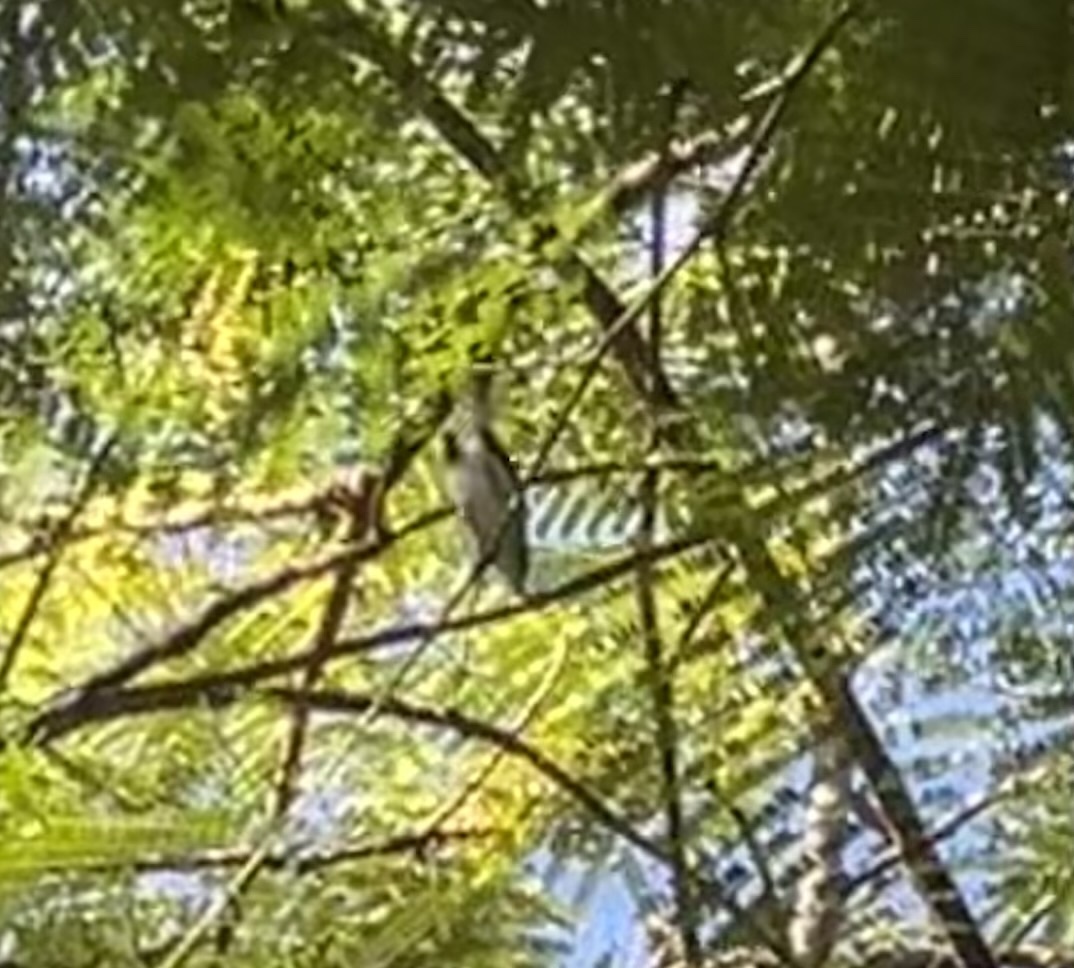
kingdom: Animalia
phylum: Chordata
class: Aves
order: Passeriformes
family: Polioptilidae
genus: Polioptila
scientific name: Polioptila caerulea
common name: Blue-gray gnatcatcher
